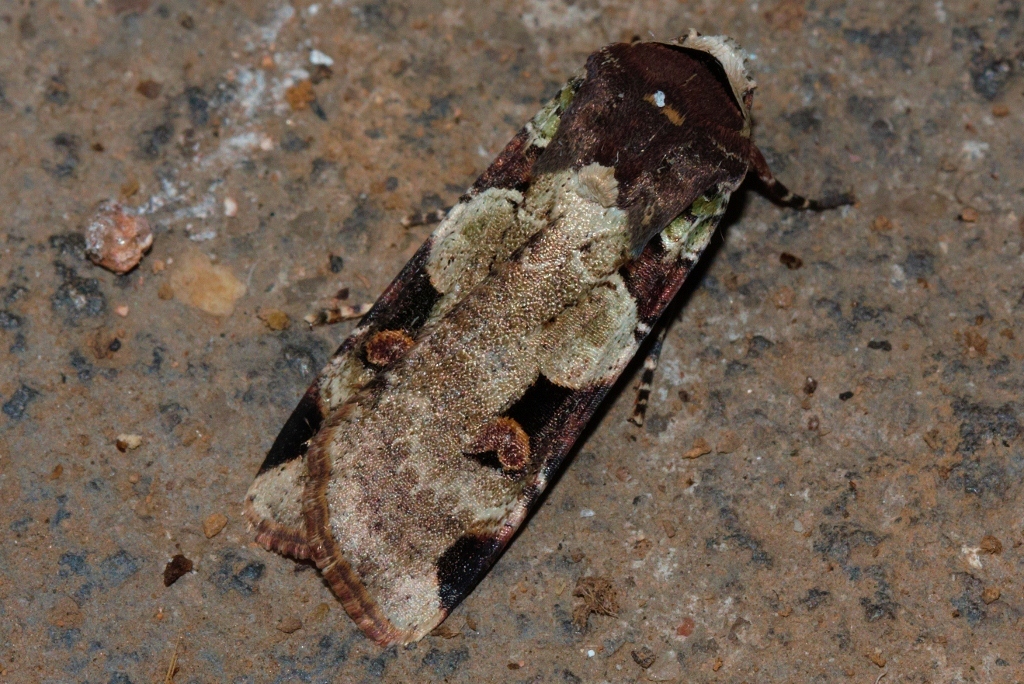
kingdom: Animalia
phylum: Arthropoda
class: Insecta
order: Lepidoptera
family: Noctuidae
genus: Mentaxya
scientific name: Mentaxya albifrons
